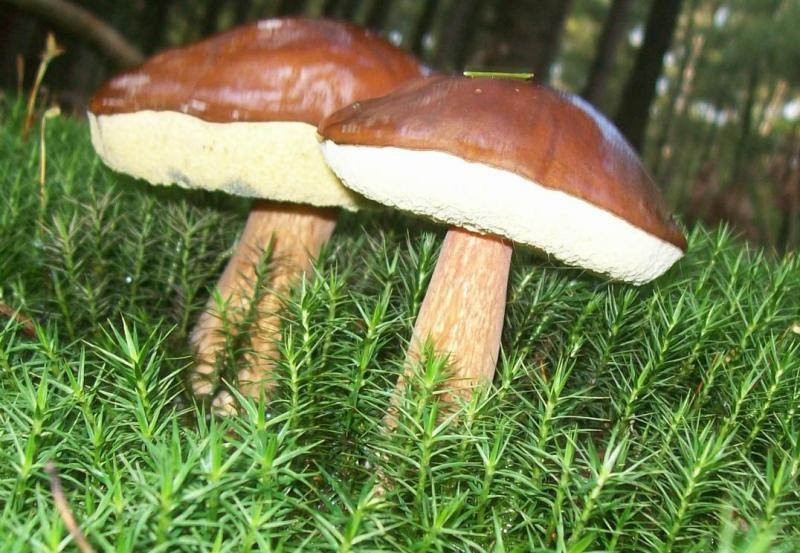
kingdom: Fungi
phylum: Basidiomycota
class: Agaricomycetes
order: Boletales
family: Boletaceae
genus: Imleria
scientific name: Imleria badia
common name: Bay bolete
